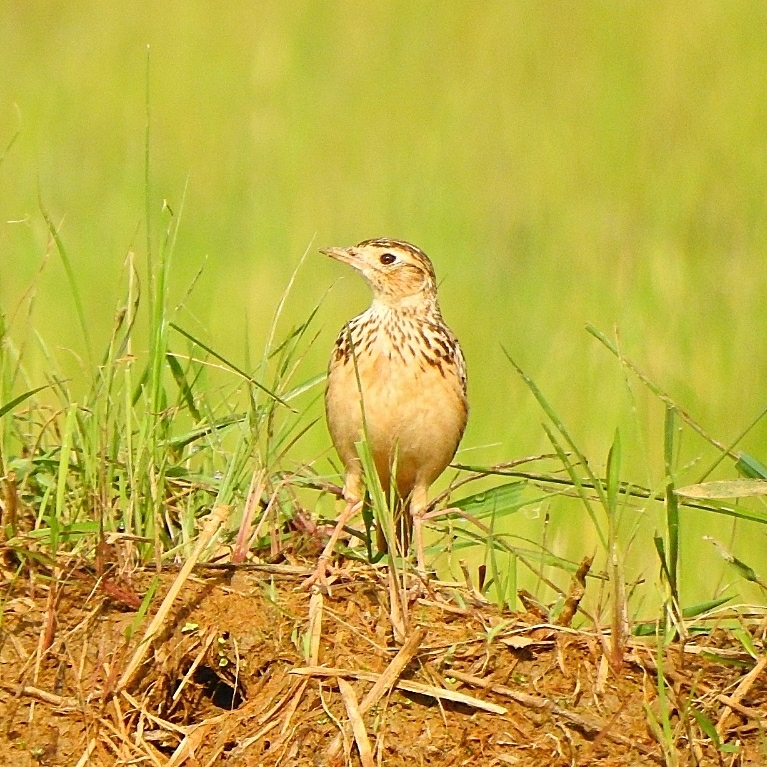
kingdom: Animalia
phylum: Chordata
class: Aves
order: Passeriformes
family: Alaudidae
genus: Alauda
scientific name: Alauda arvensis
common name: Eurasian skylark
